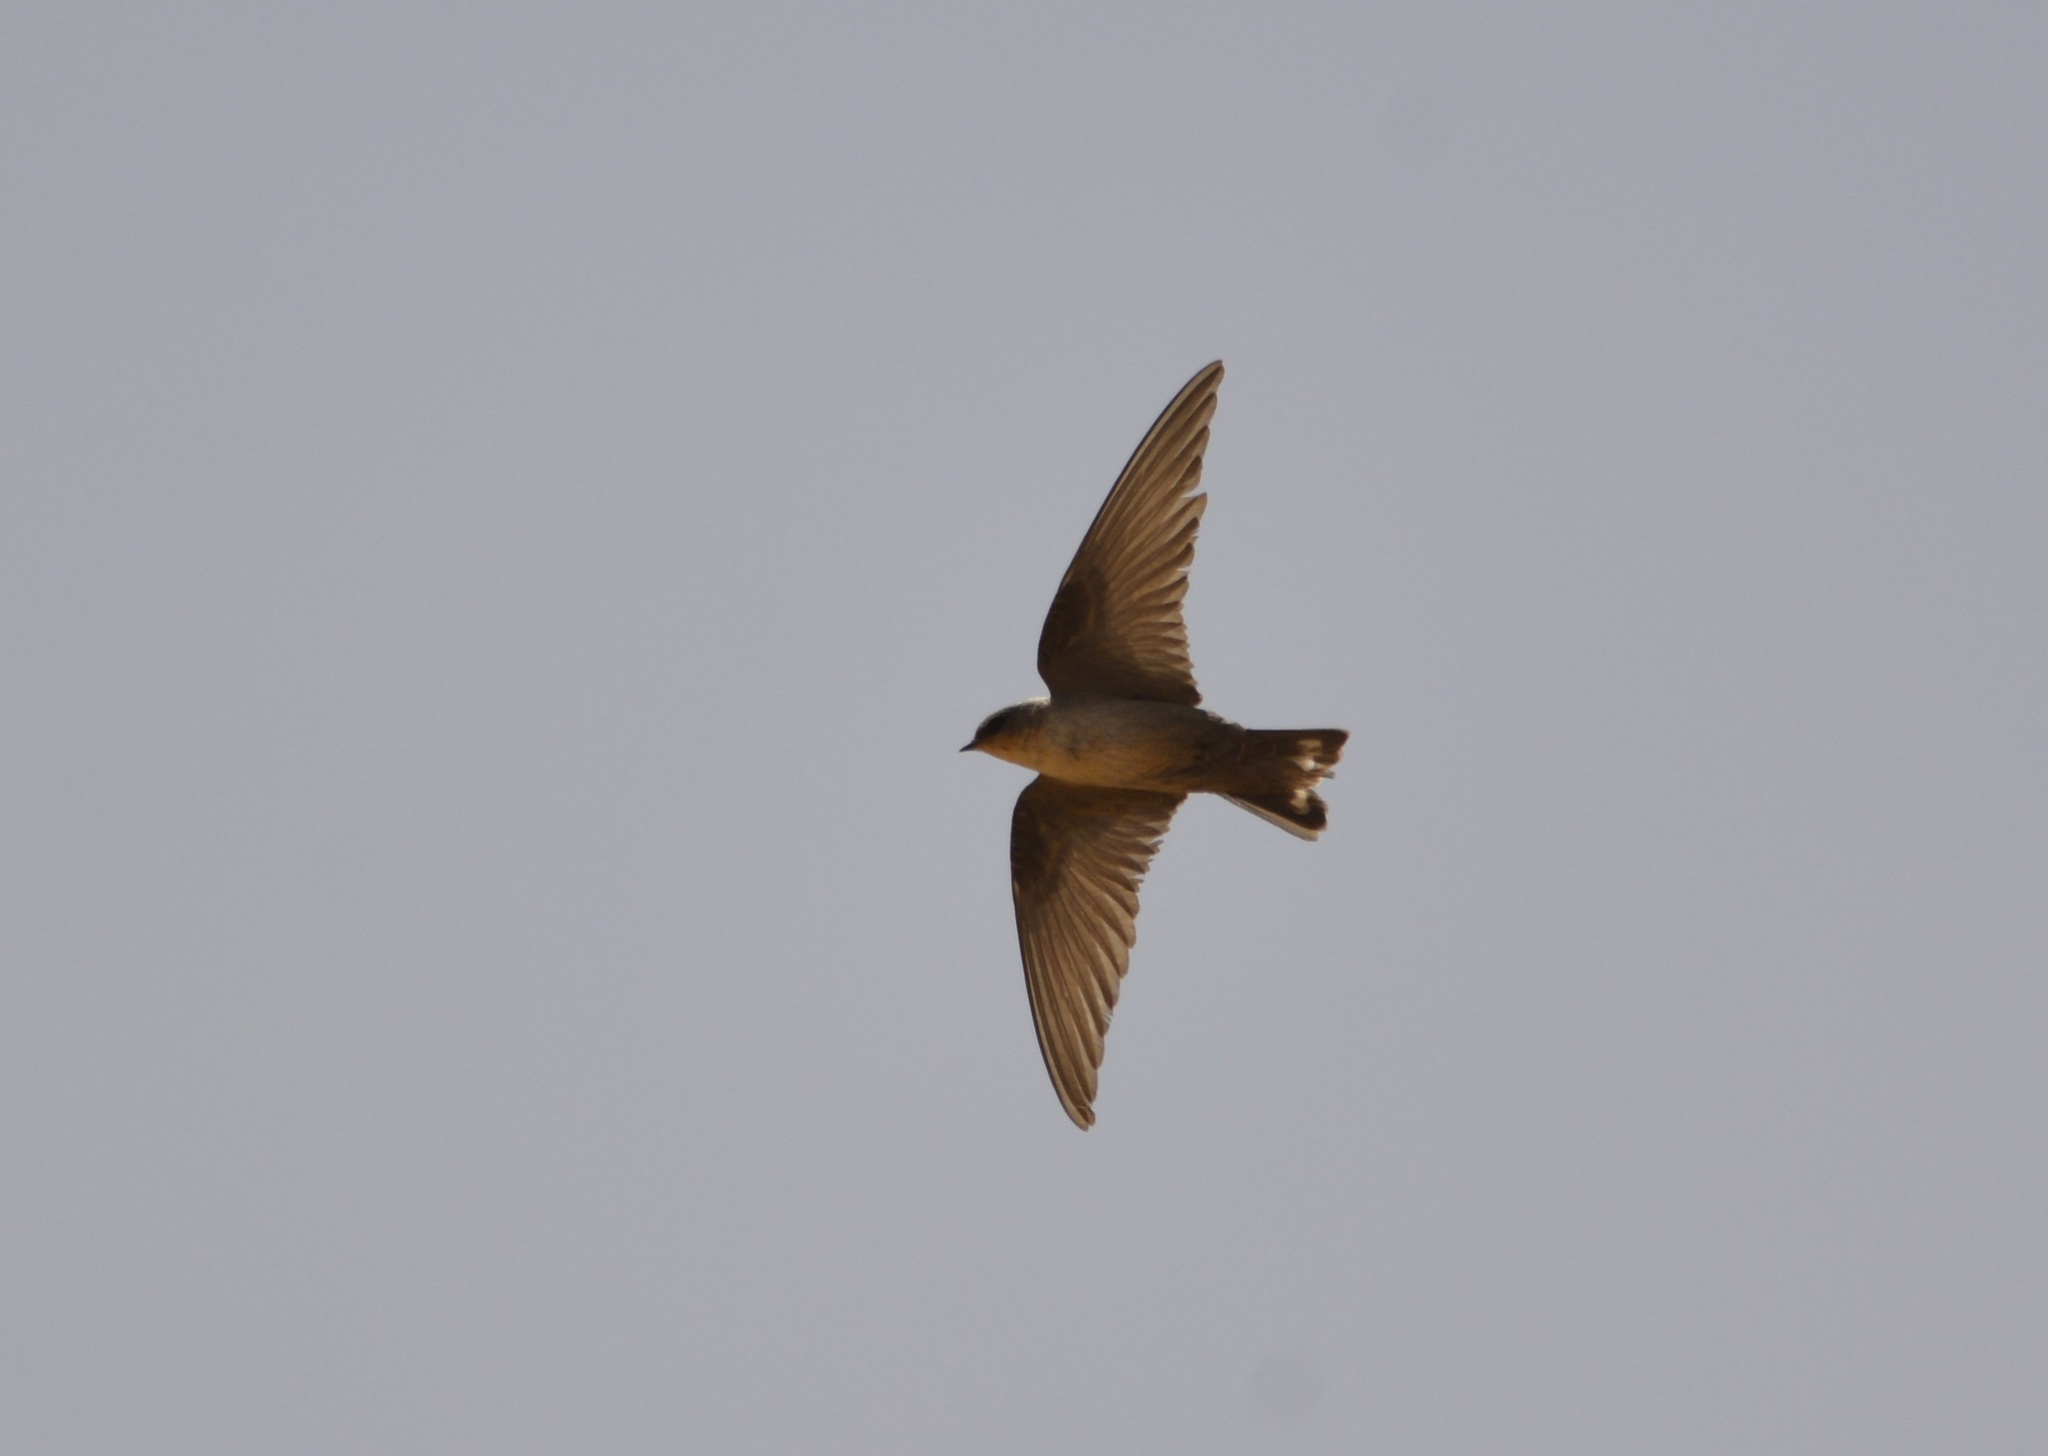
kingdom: Animalia
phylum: Chordata
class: Aves
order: Passeriformes
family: Hirundinidae
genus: Ptyonoprogne
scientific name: Ptyonoprogne fuligula
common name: Rock martin
